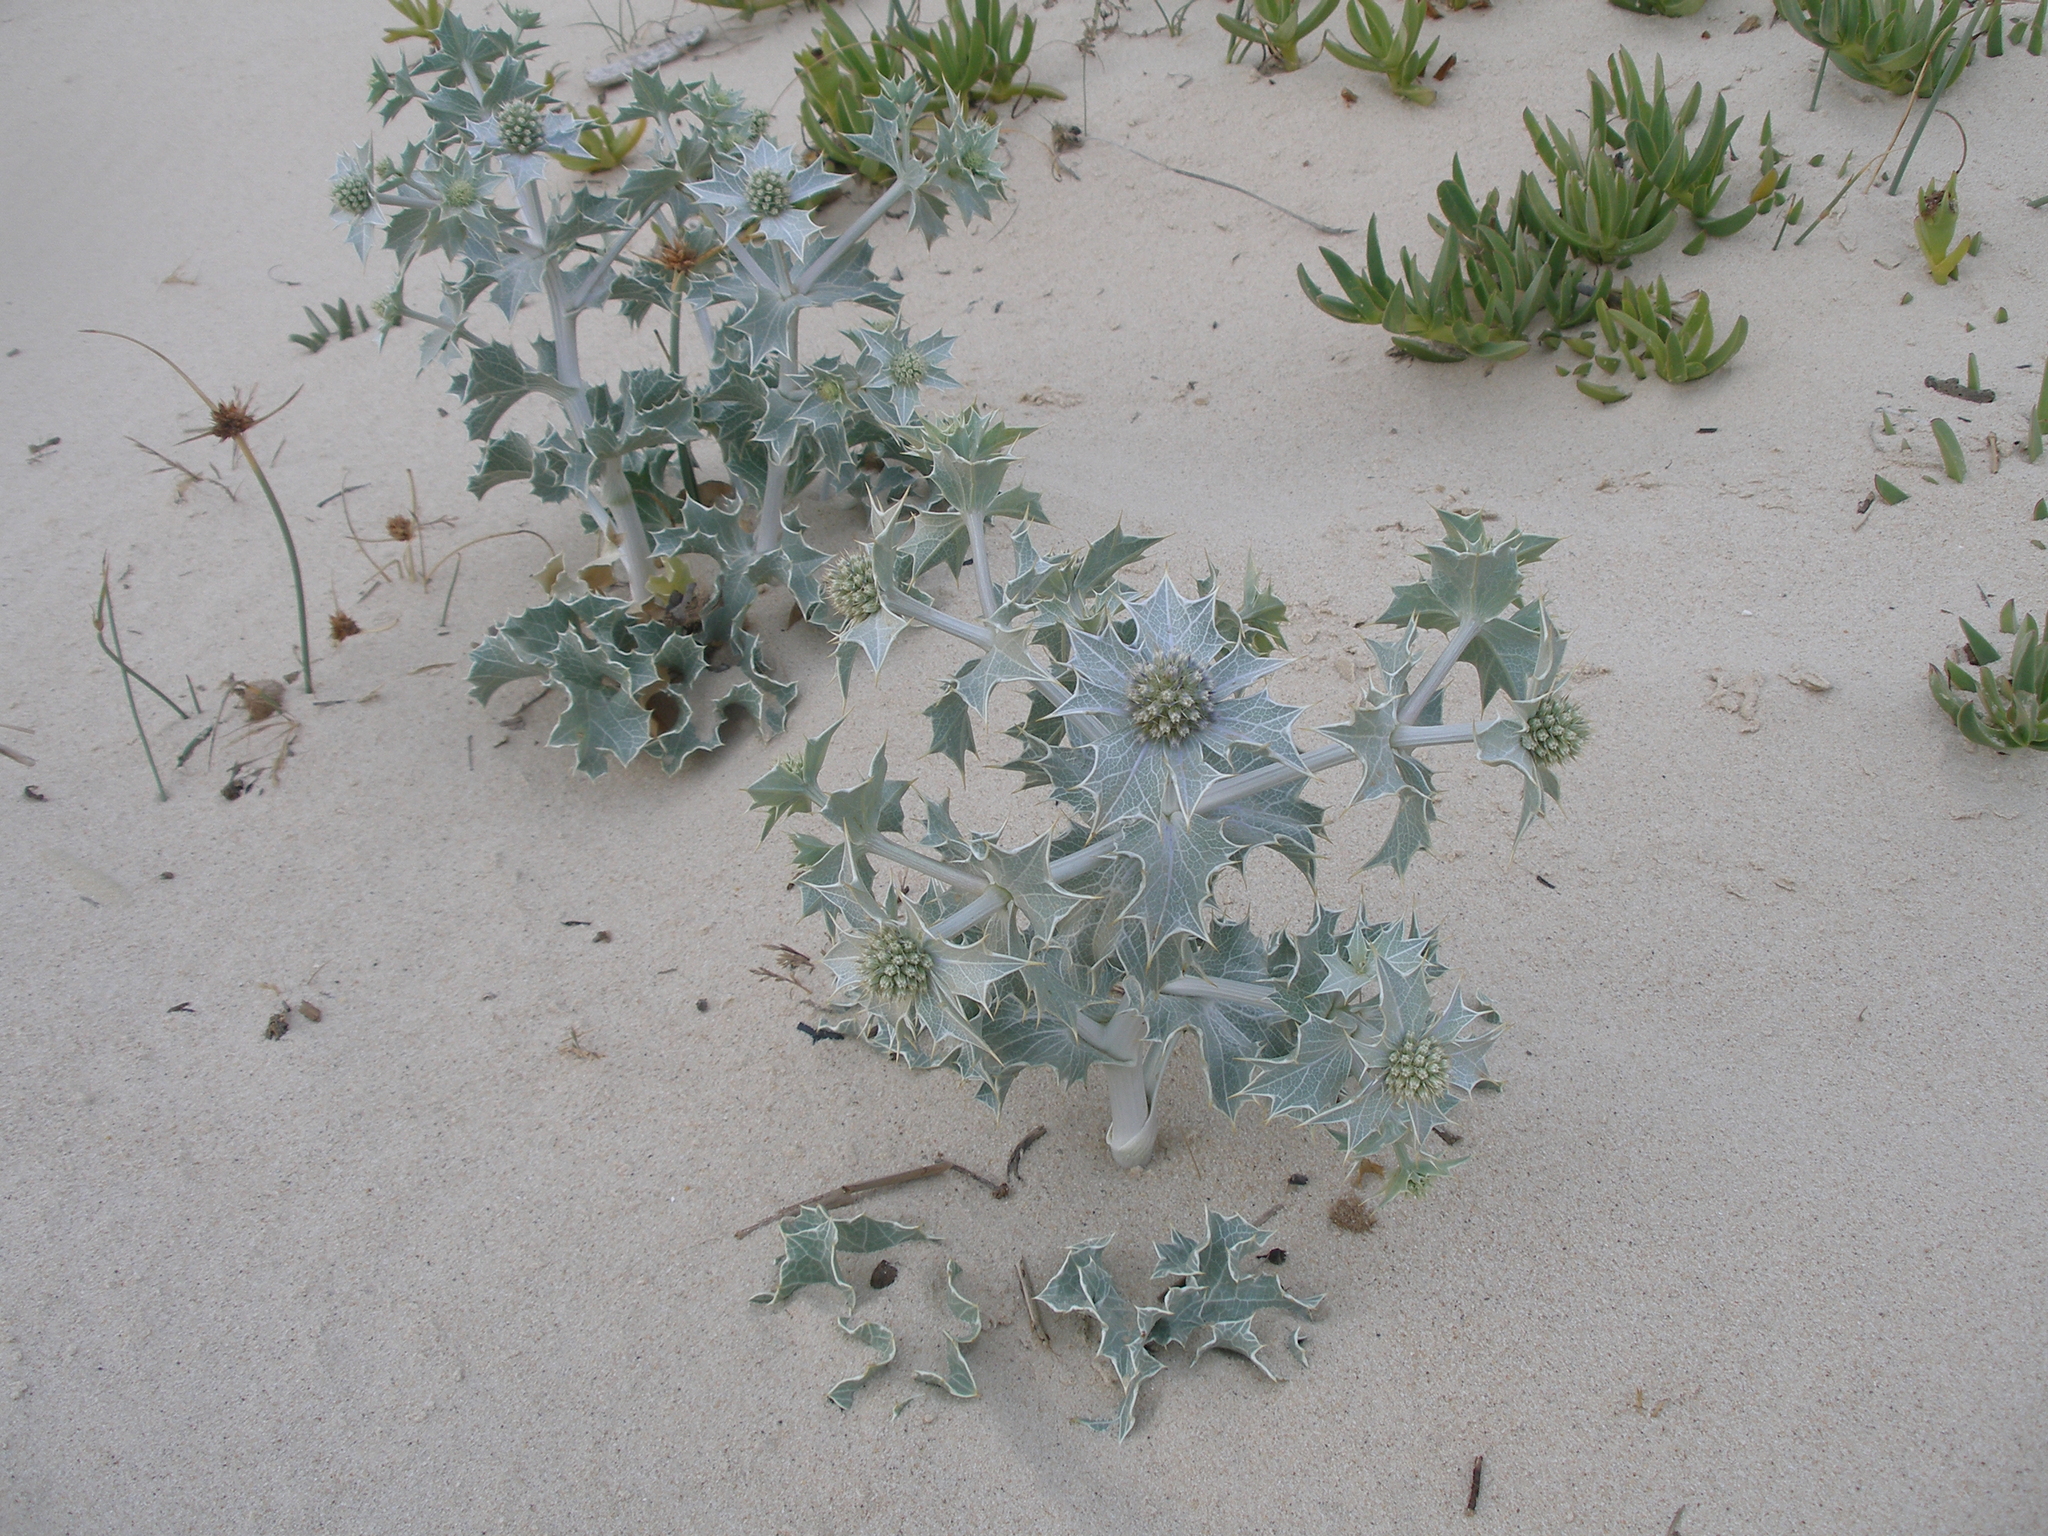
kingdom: Plantae
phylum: Tracheophyta
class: Magnoliopsida
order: Apiales
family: Apiaceae
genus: Eryngium
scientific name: Eryngium maritimum
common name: Sea-holly
